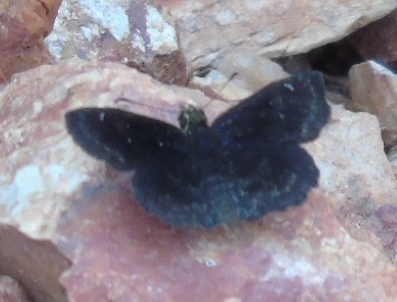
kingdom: Animalia
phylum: Arthropoda
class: Insecta
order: Lepidoptera
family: Hesperiidae
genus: Staphylus
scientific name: Staphylus mazans
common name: Mazans scallopwing
